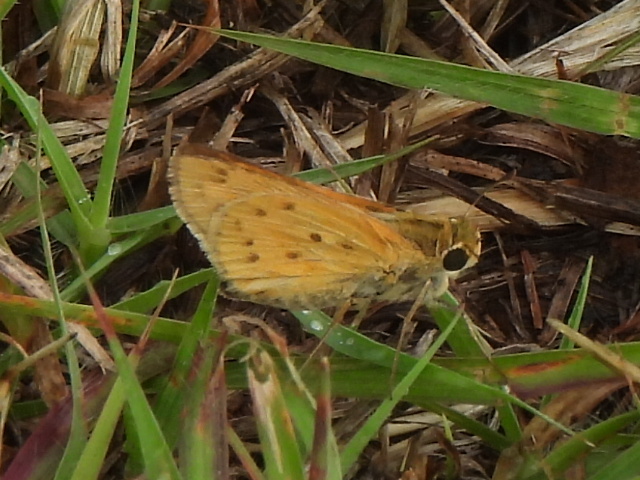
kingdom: Animalia
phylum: Arthropoda
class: Insecta
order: Lepidoptera
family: Hesperiidae
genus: Hylephila
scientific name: Hylephila phyleus
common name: Fiery skipper
